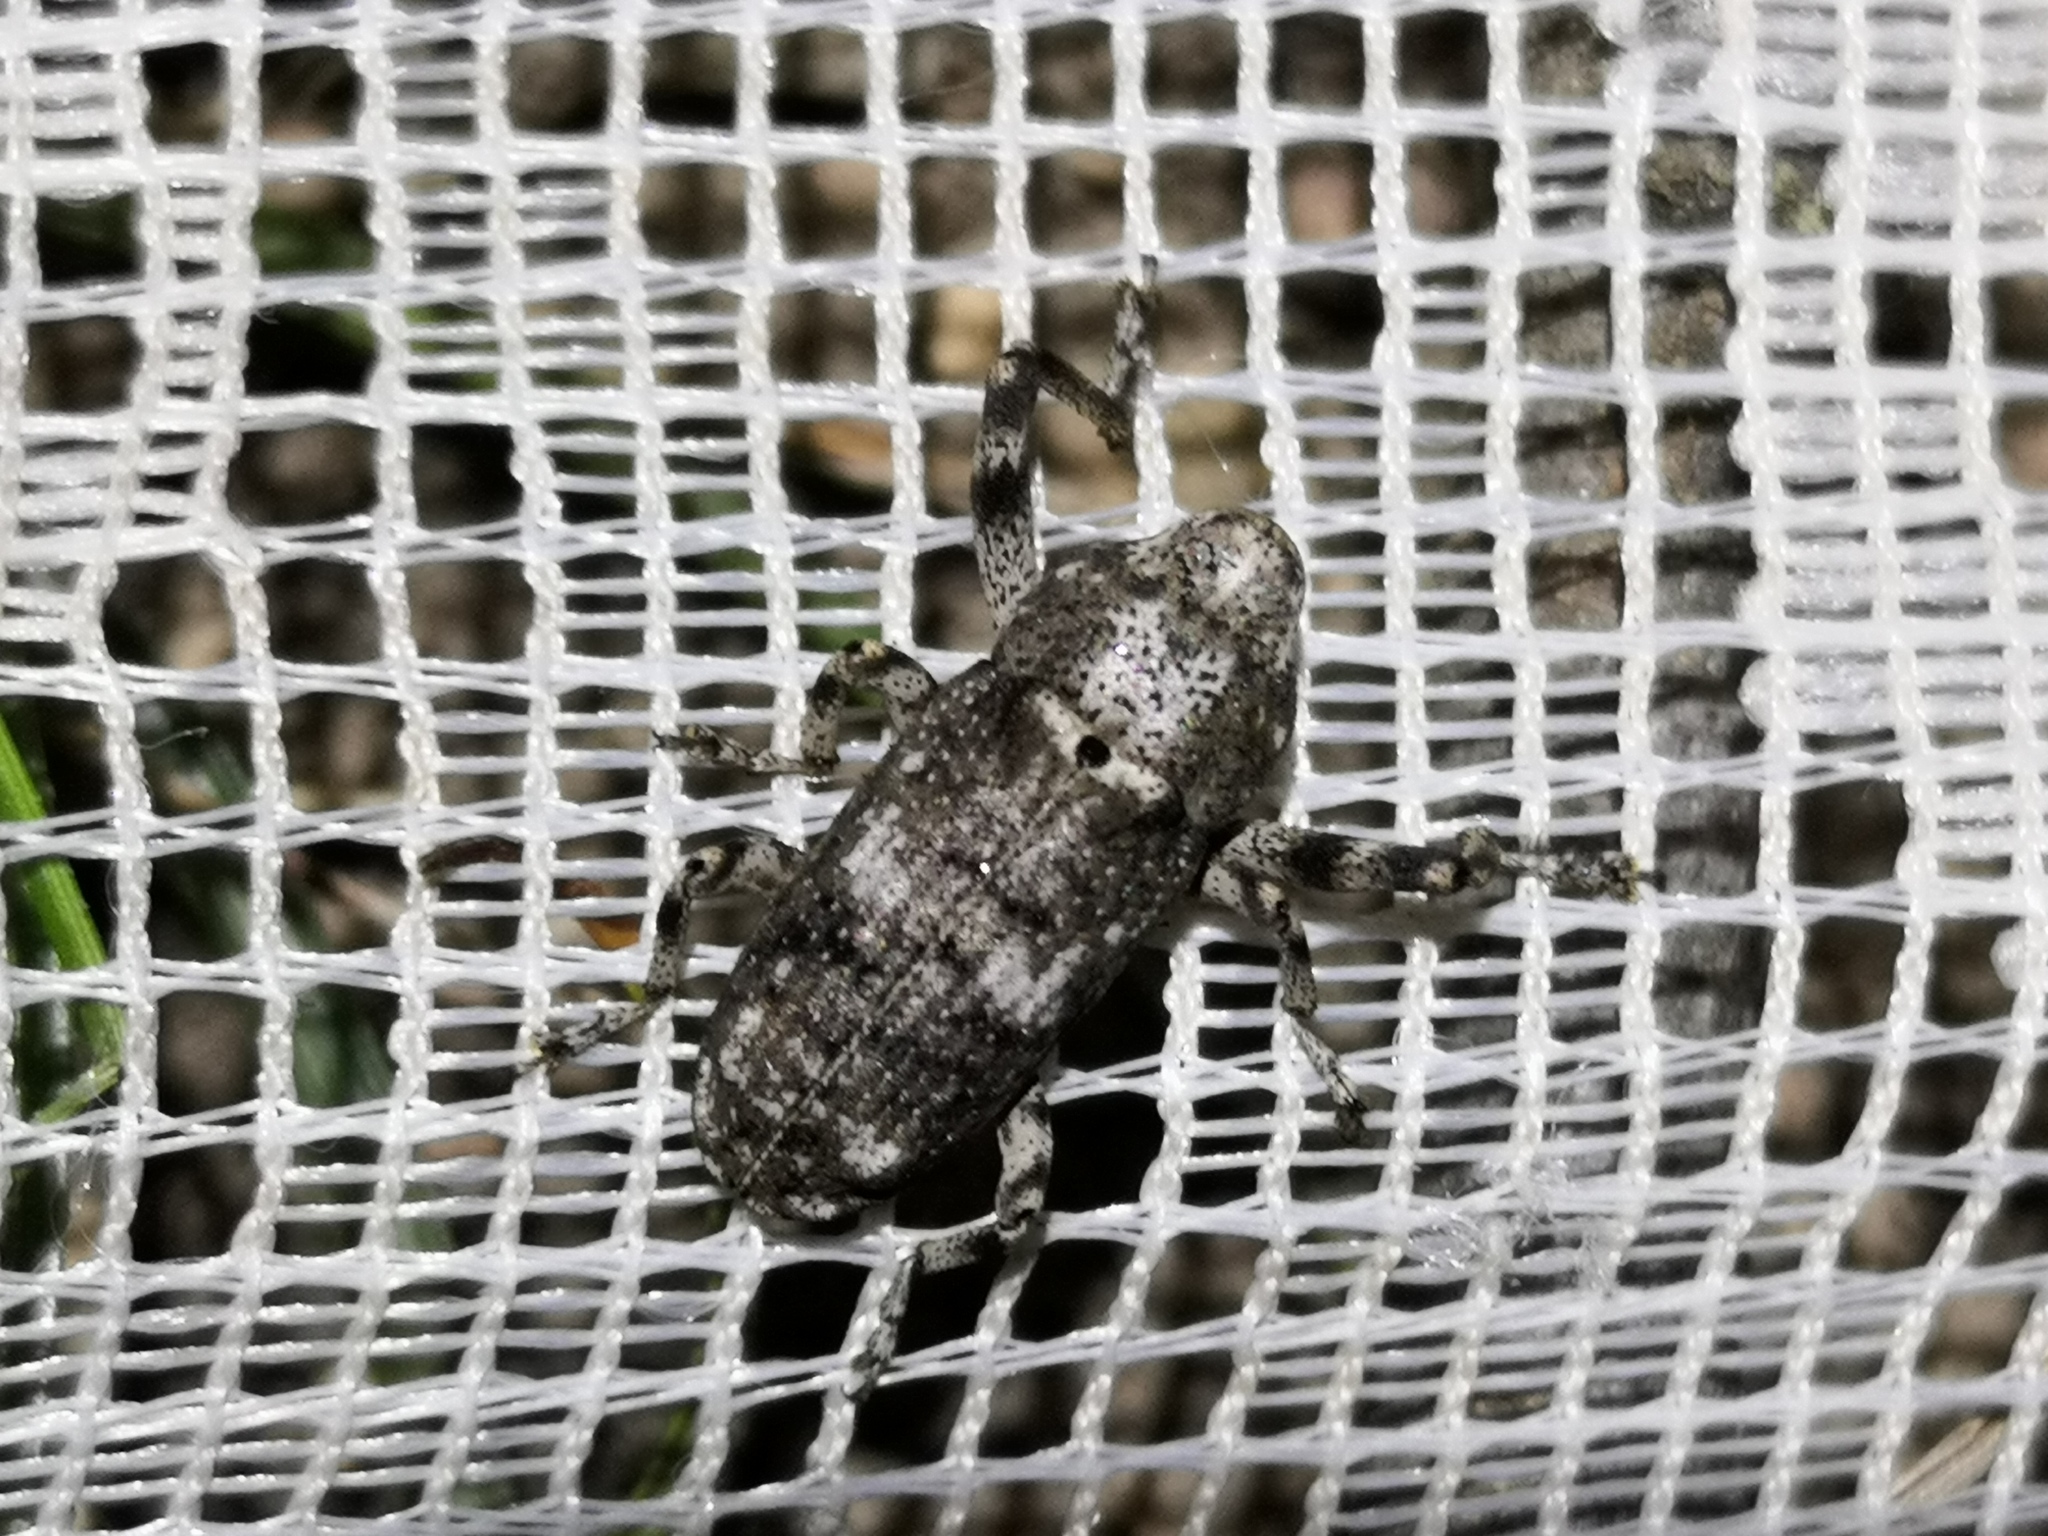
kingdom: Animalia
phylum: Arthropoda
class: Insecta
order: Coleoptera
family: Curculionidae
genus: Gasterocercus
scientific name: Gasterocercus depressirostris
